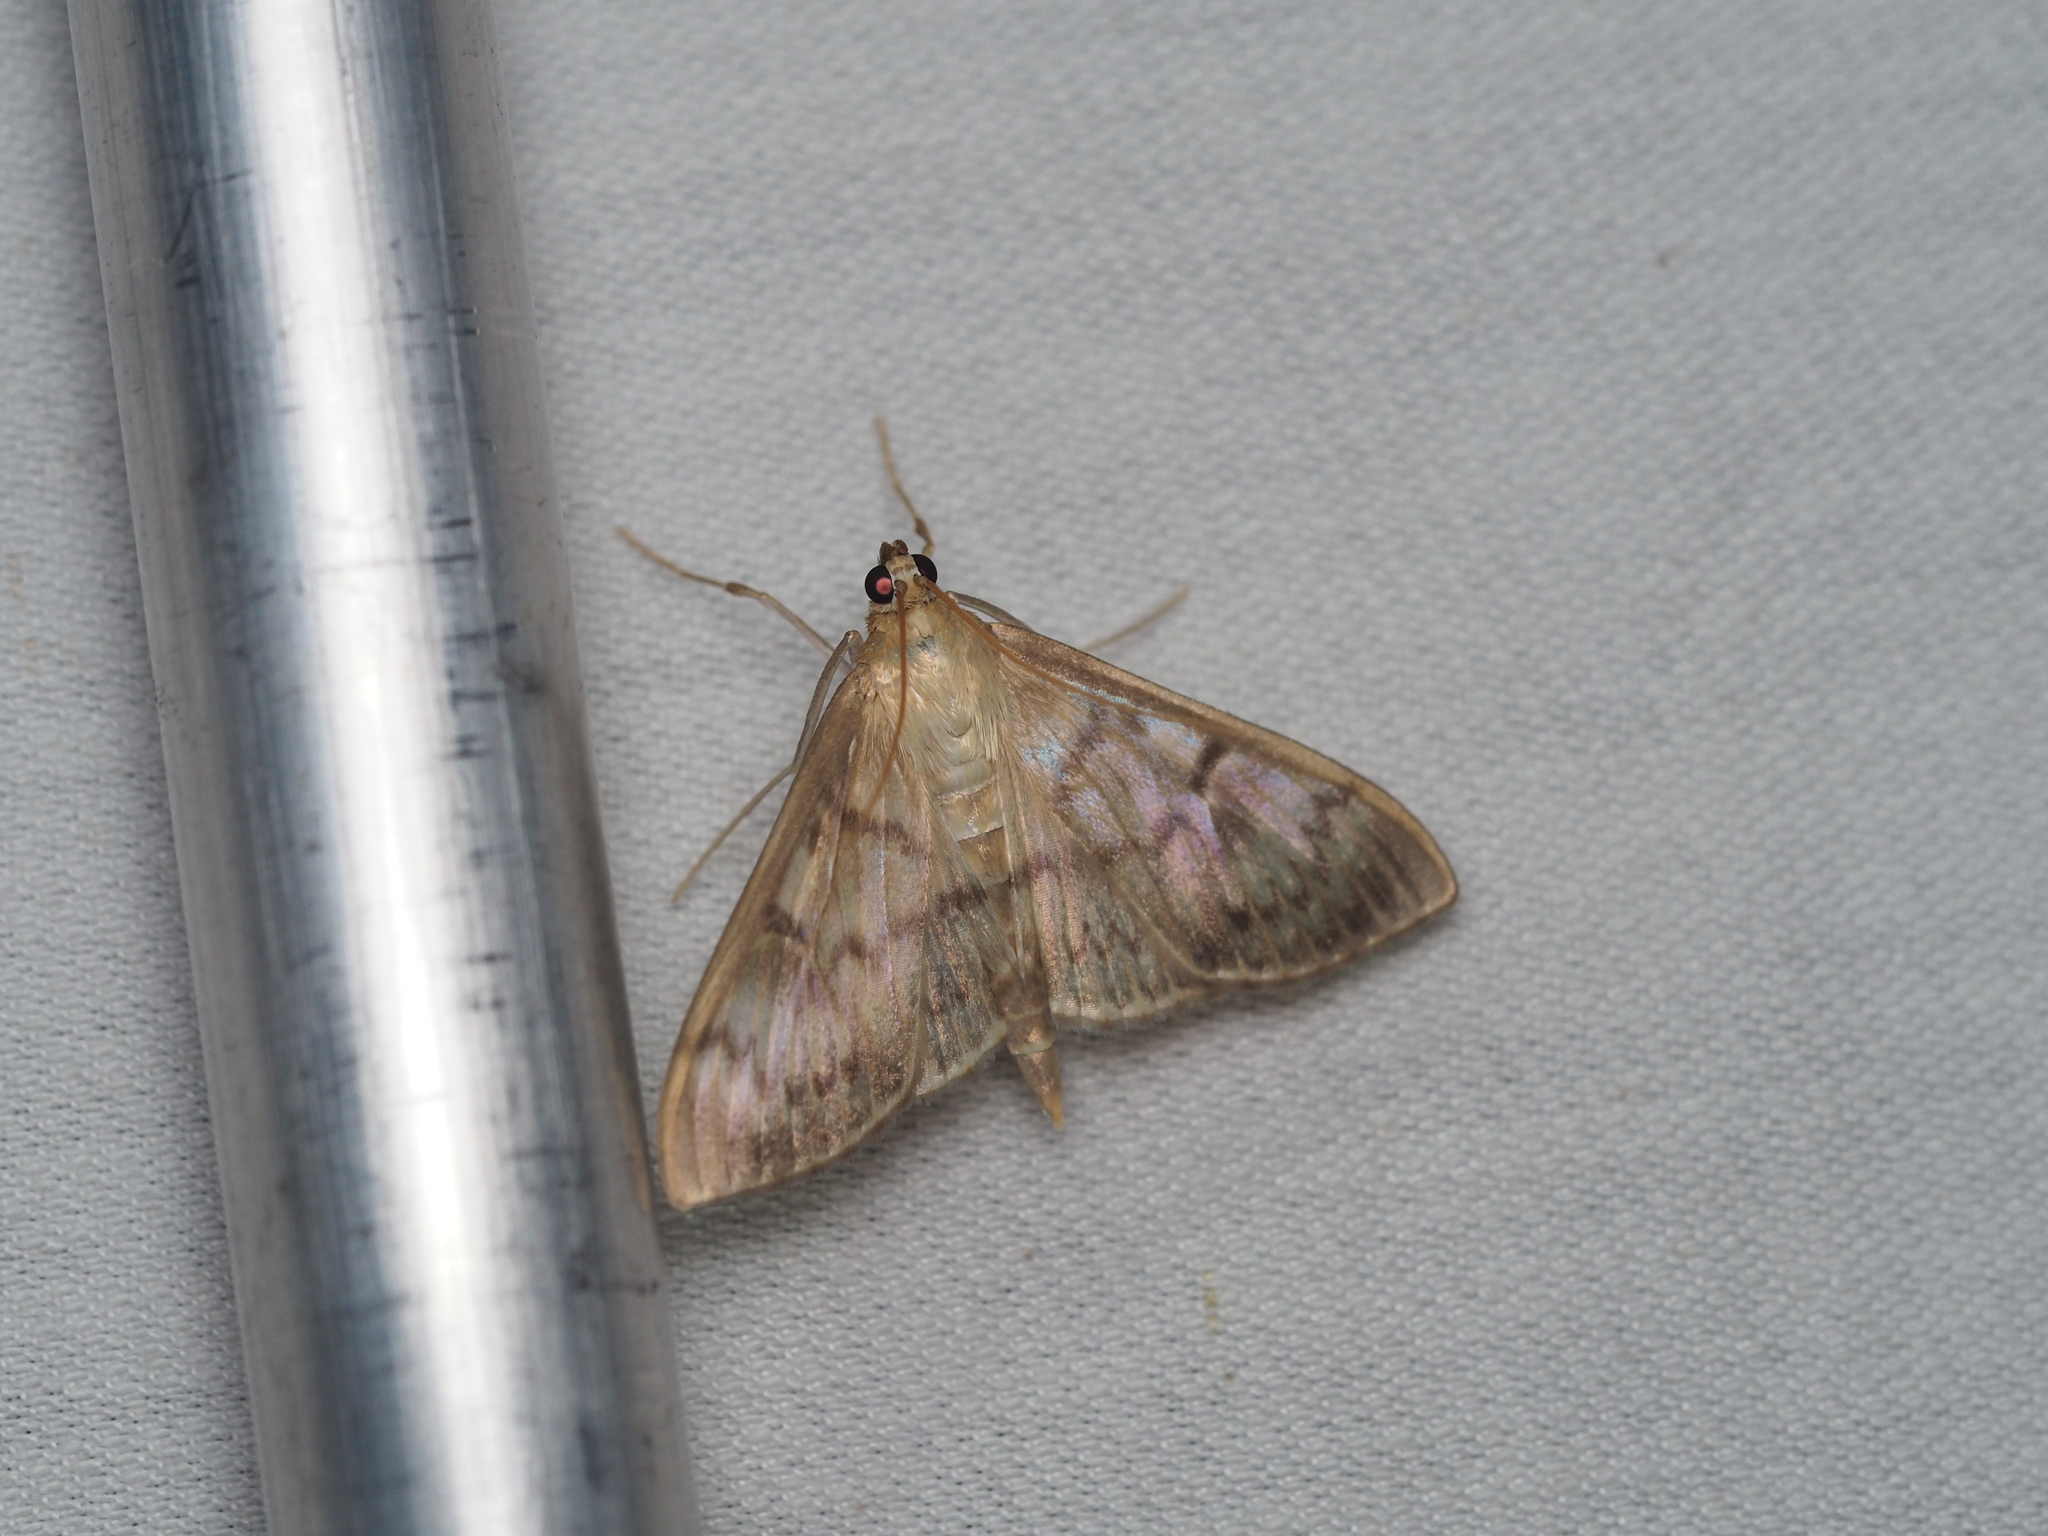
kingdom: Animalia
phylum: Arthropoda
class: Insecta
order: Lepidoptera
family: Crambidae
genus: Patania
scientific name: Patania ruralis
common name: Mother of pearl
